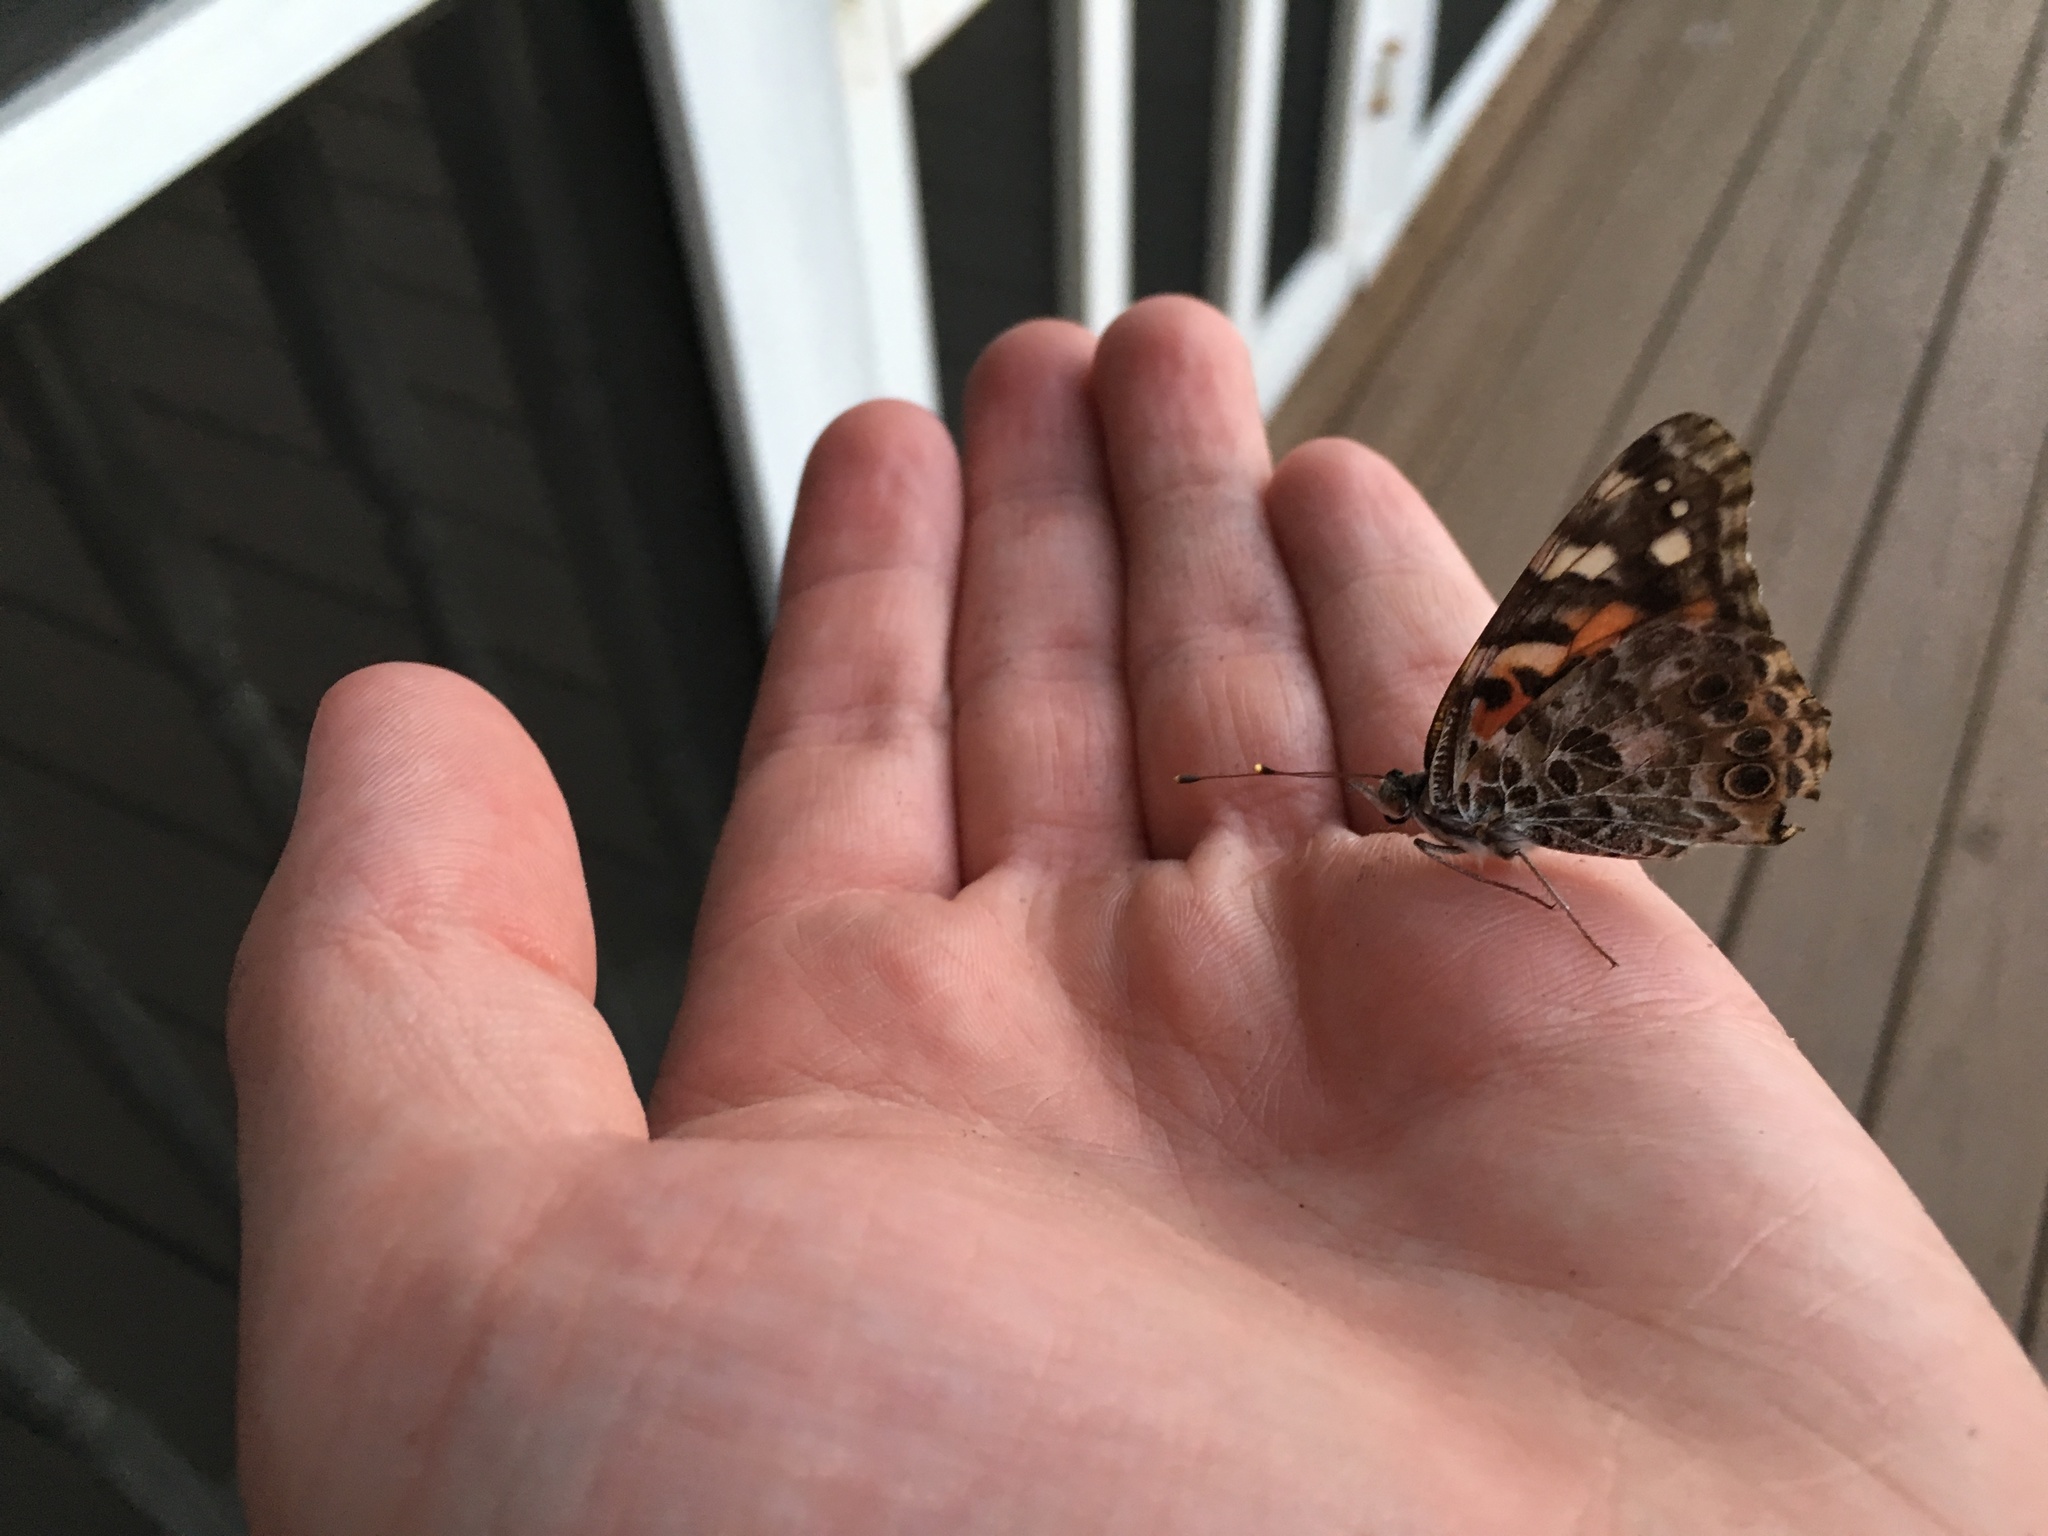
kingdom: Animalia
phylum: Arthropoda
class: Insecta
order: Lepidoptera
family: Nymphalidae
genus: Vanessa
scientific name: Vanessa cardui
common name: Painted lady
